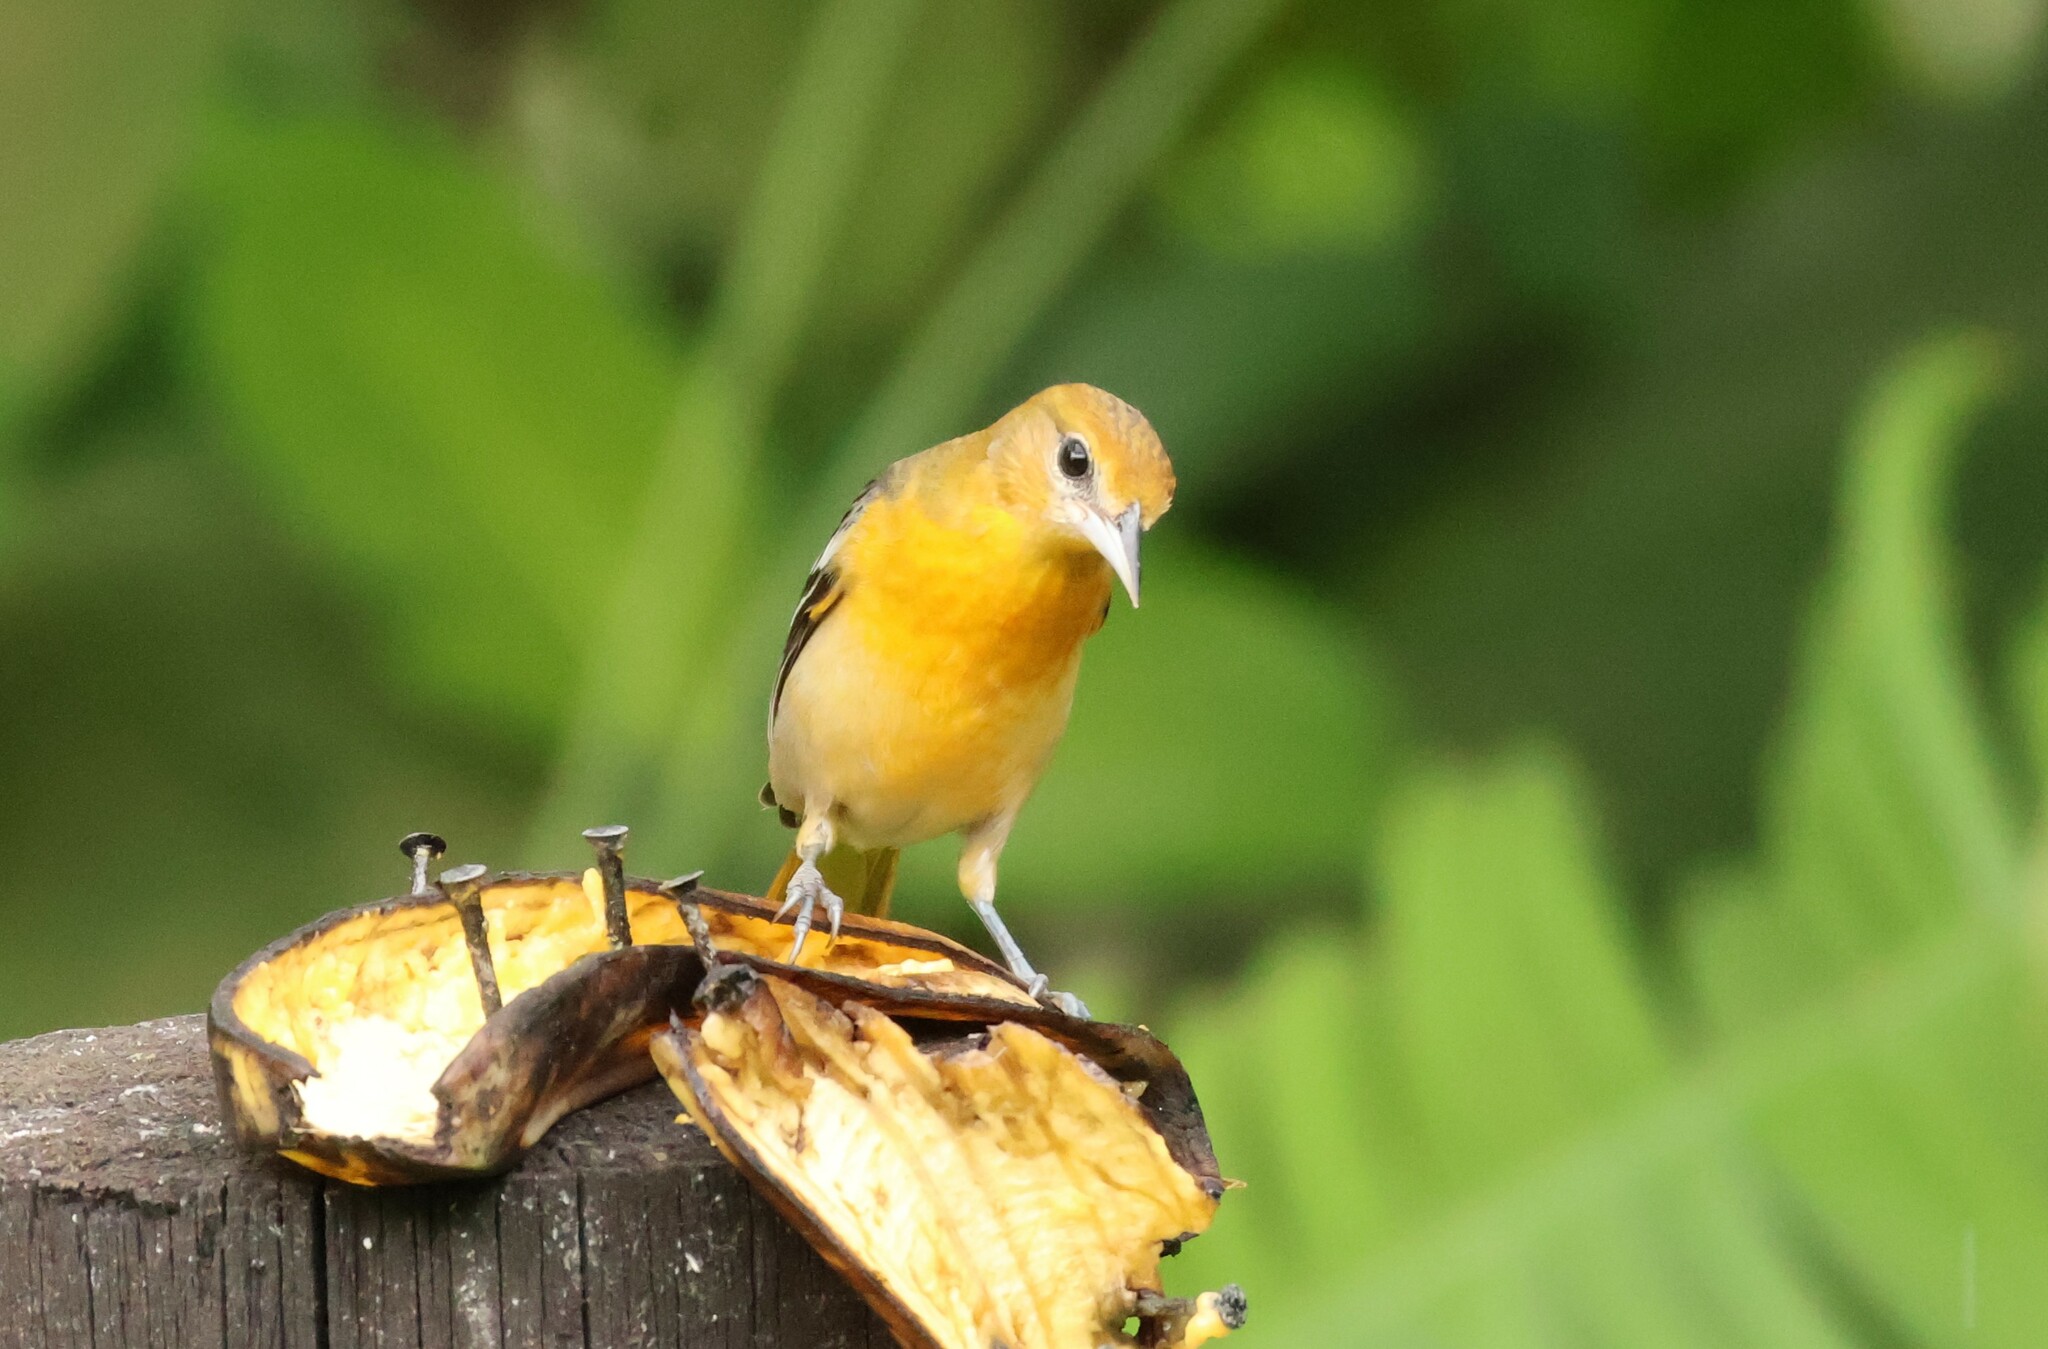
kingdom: Animalia
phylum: Chordata
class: Aves
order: Passeriformes
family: Icteridae
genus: Icterus
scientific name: Icterus galbula
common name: Baltimore oriole
